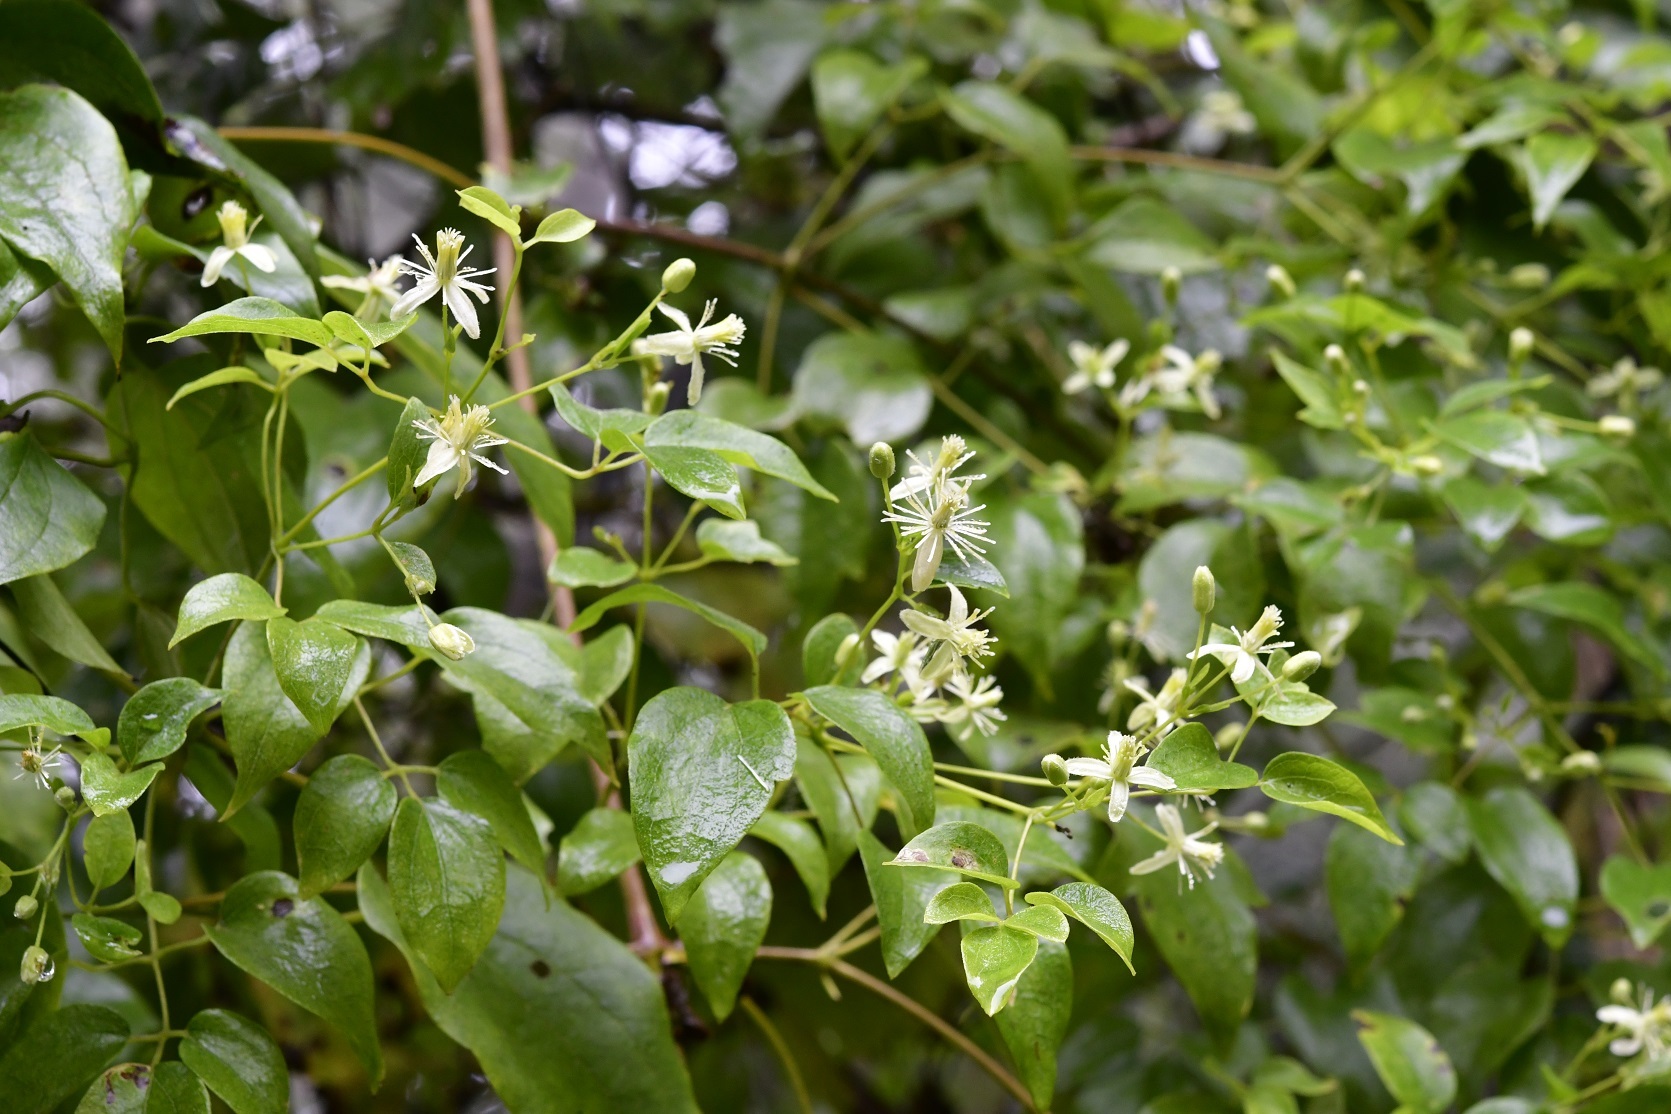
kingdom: Plantae
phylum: Tracheophyta
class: Magnoliopsida
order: Ranunculales
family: Ranunculaceae
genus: Clematis
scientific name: Clematis dioica
